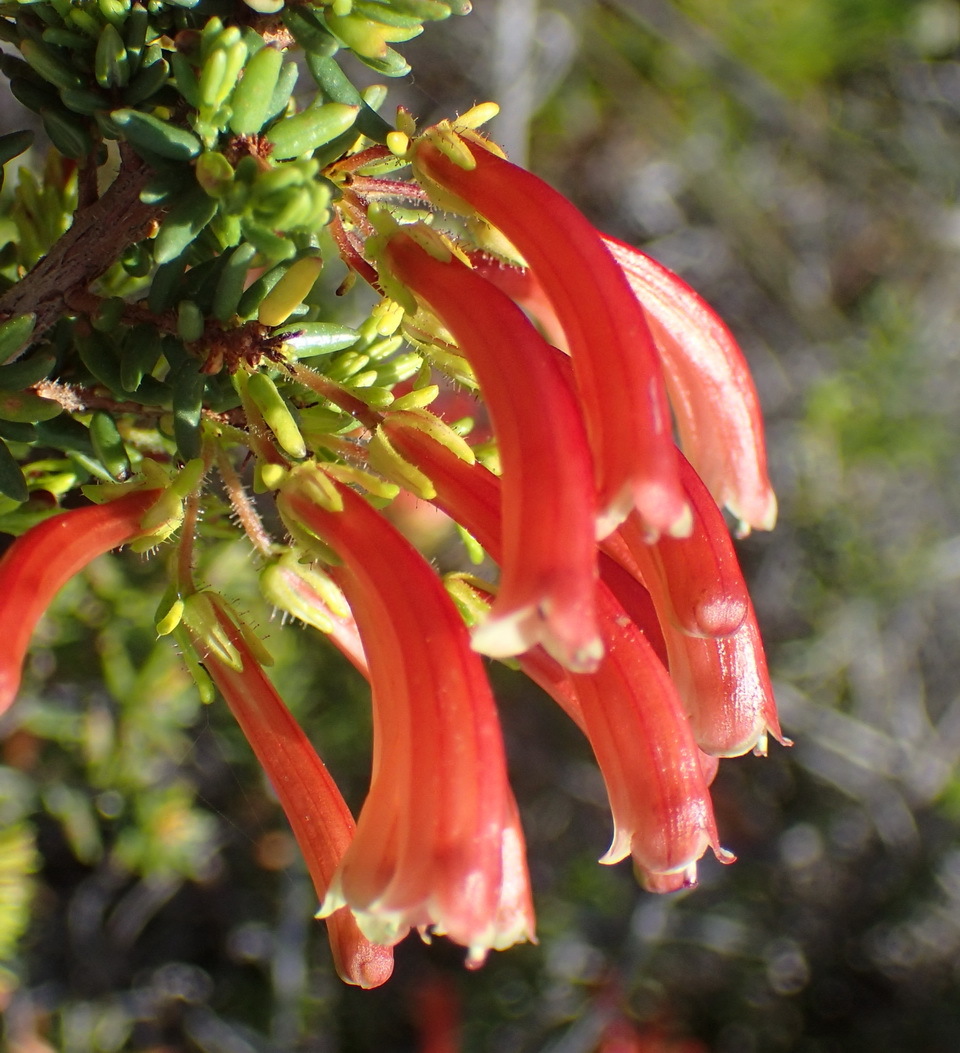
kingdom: Plantae
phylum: Tracheophyta
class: Magnoliopsida
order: Ericales
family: Ericaceae
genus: Erica
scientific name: Erica glandulosa
